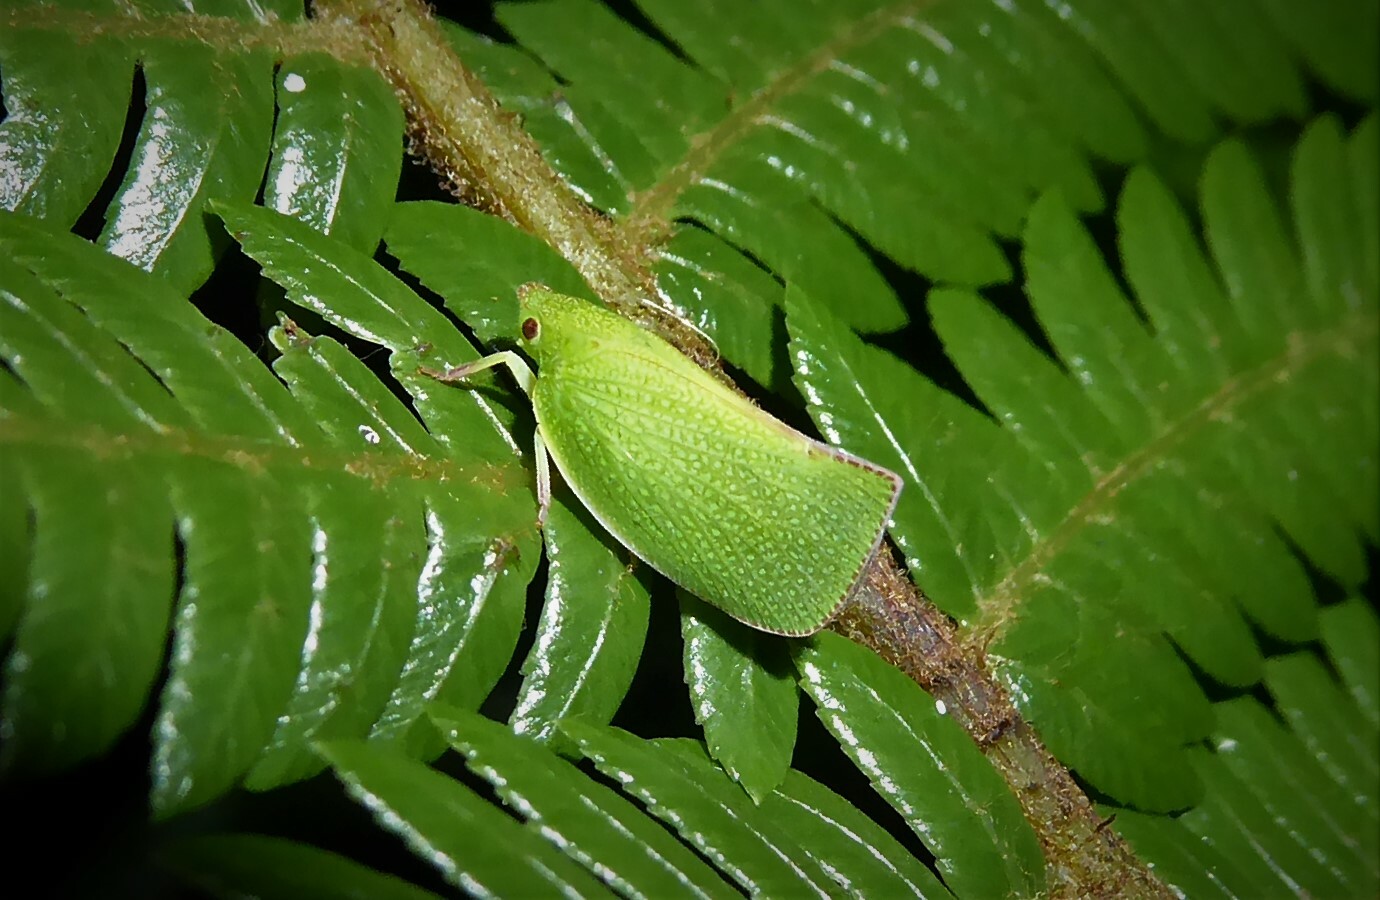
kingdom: Animalia
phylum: Arthropoda
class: Insecta
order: Hemiptera
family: Flatidae
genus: Siphanta
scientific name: Siphanta acuta
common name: Torpedo bug
